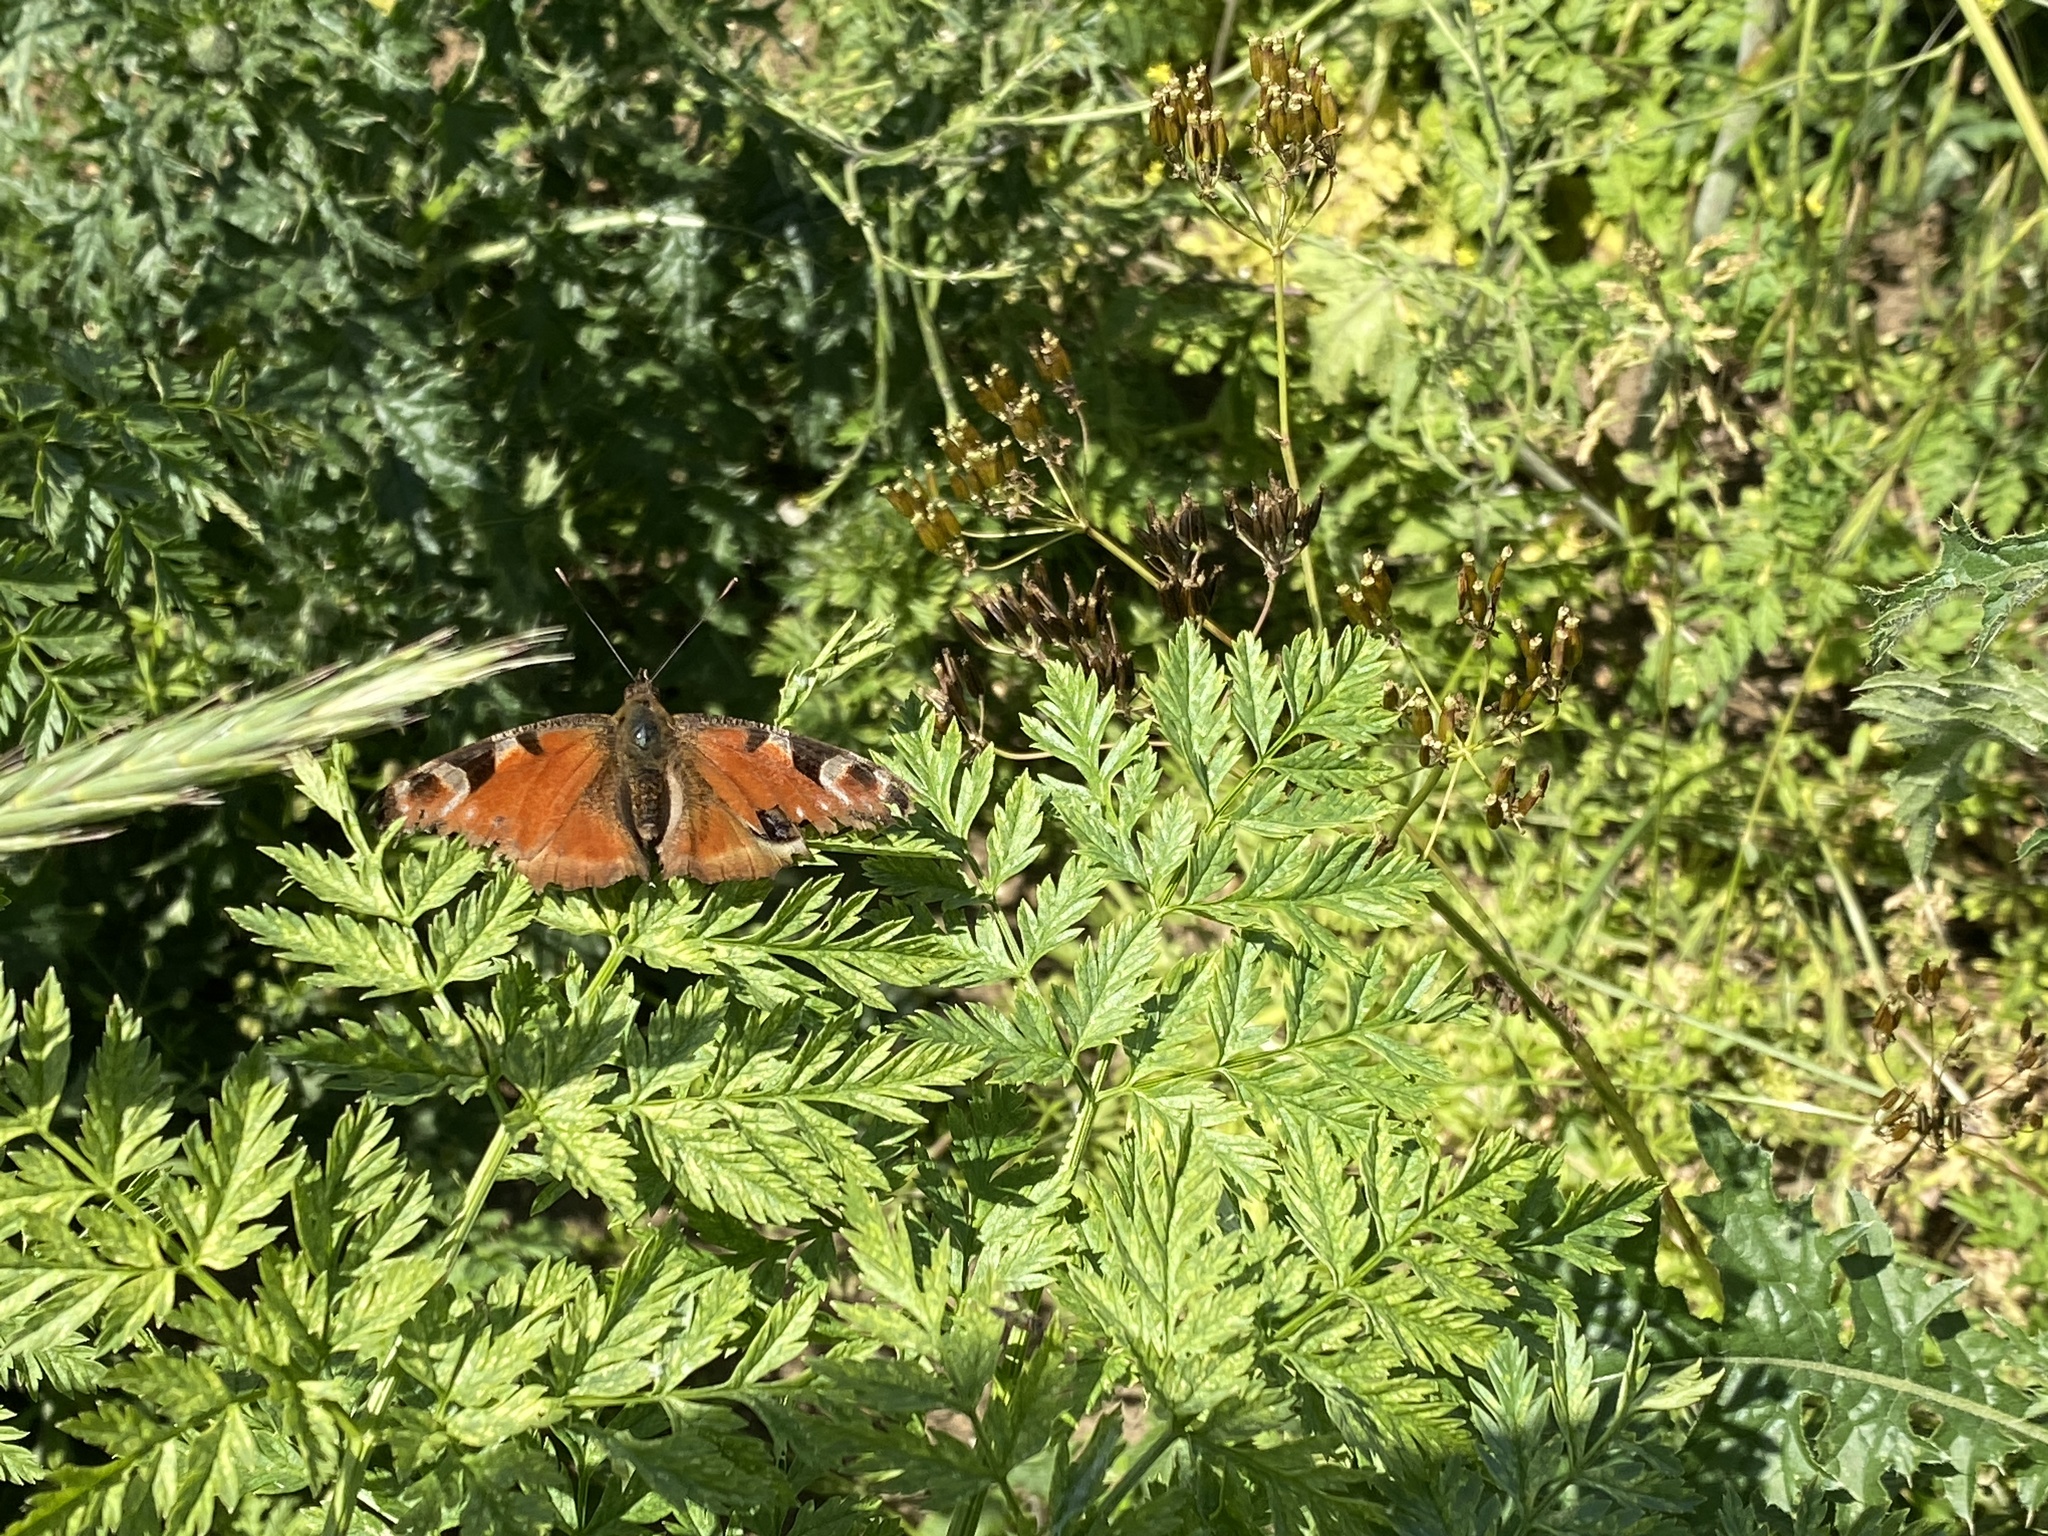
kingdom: Animalia
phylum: Arthropoda
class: Insecta
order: Lepidoptera
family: Nymphalidae
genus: Aglais
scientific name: Aglais io
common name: Peacock
